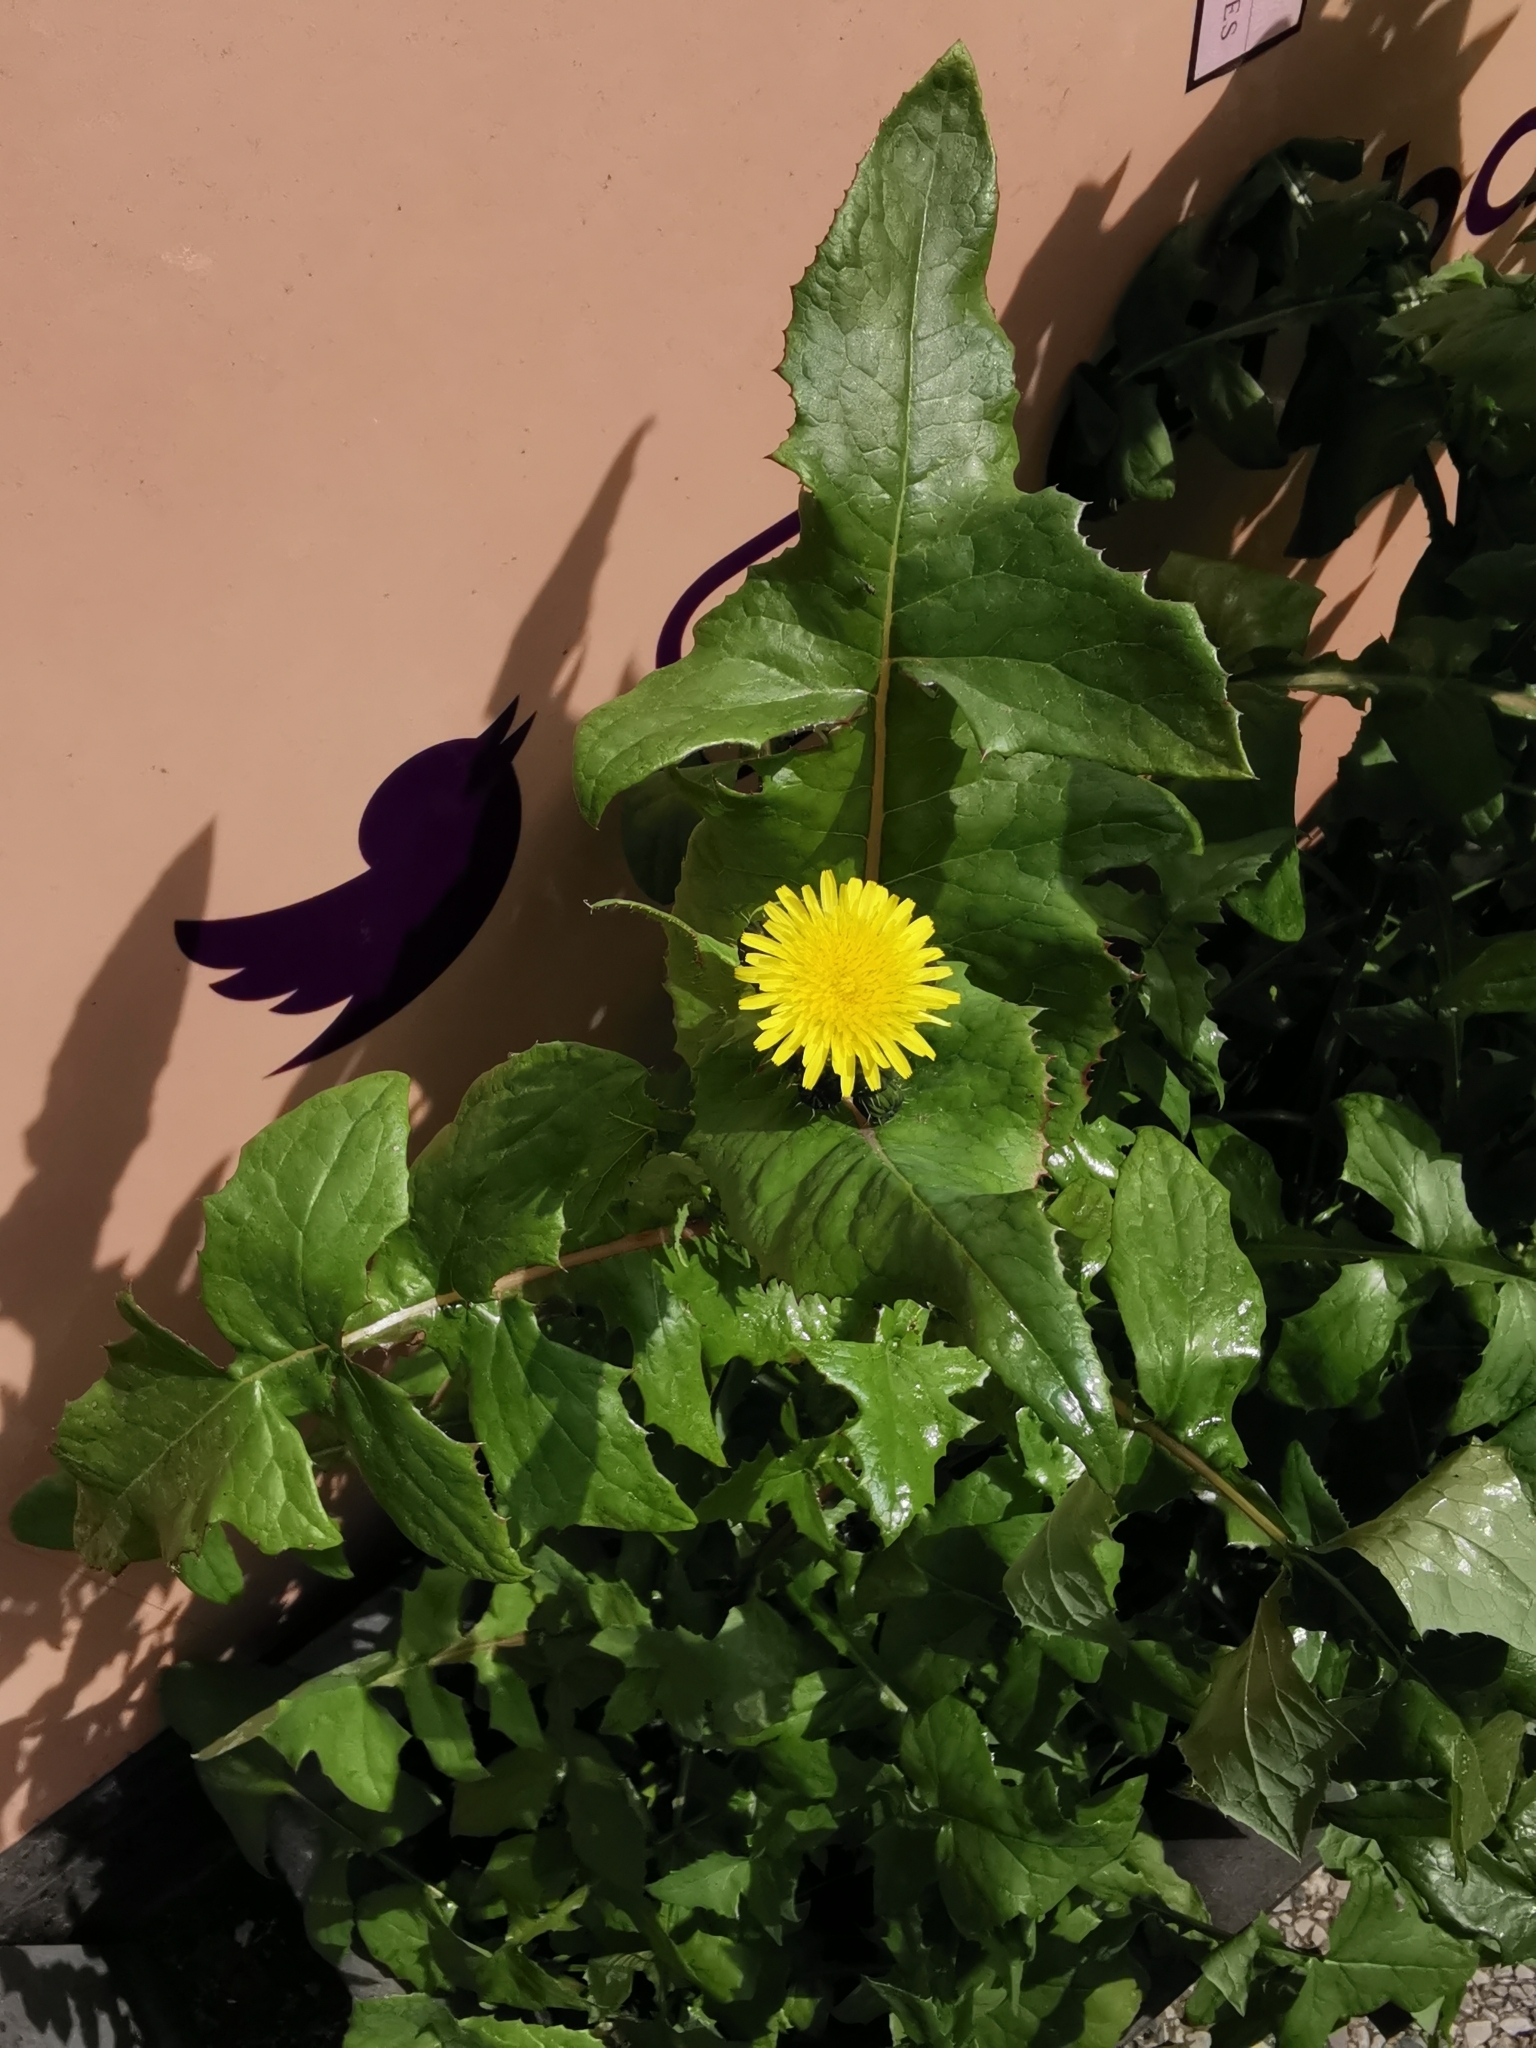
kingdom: Plantae
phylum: Tracheophyta
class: Magnoliopsida
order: Asterales
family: Asteraceae
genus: Sonchus
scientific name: Sonchus oleraceus
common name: Common sowthistle
